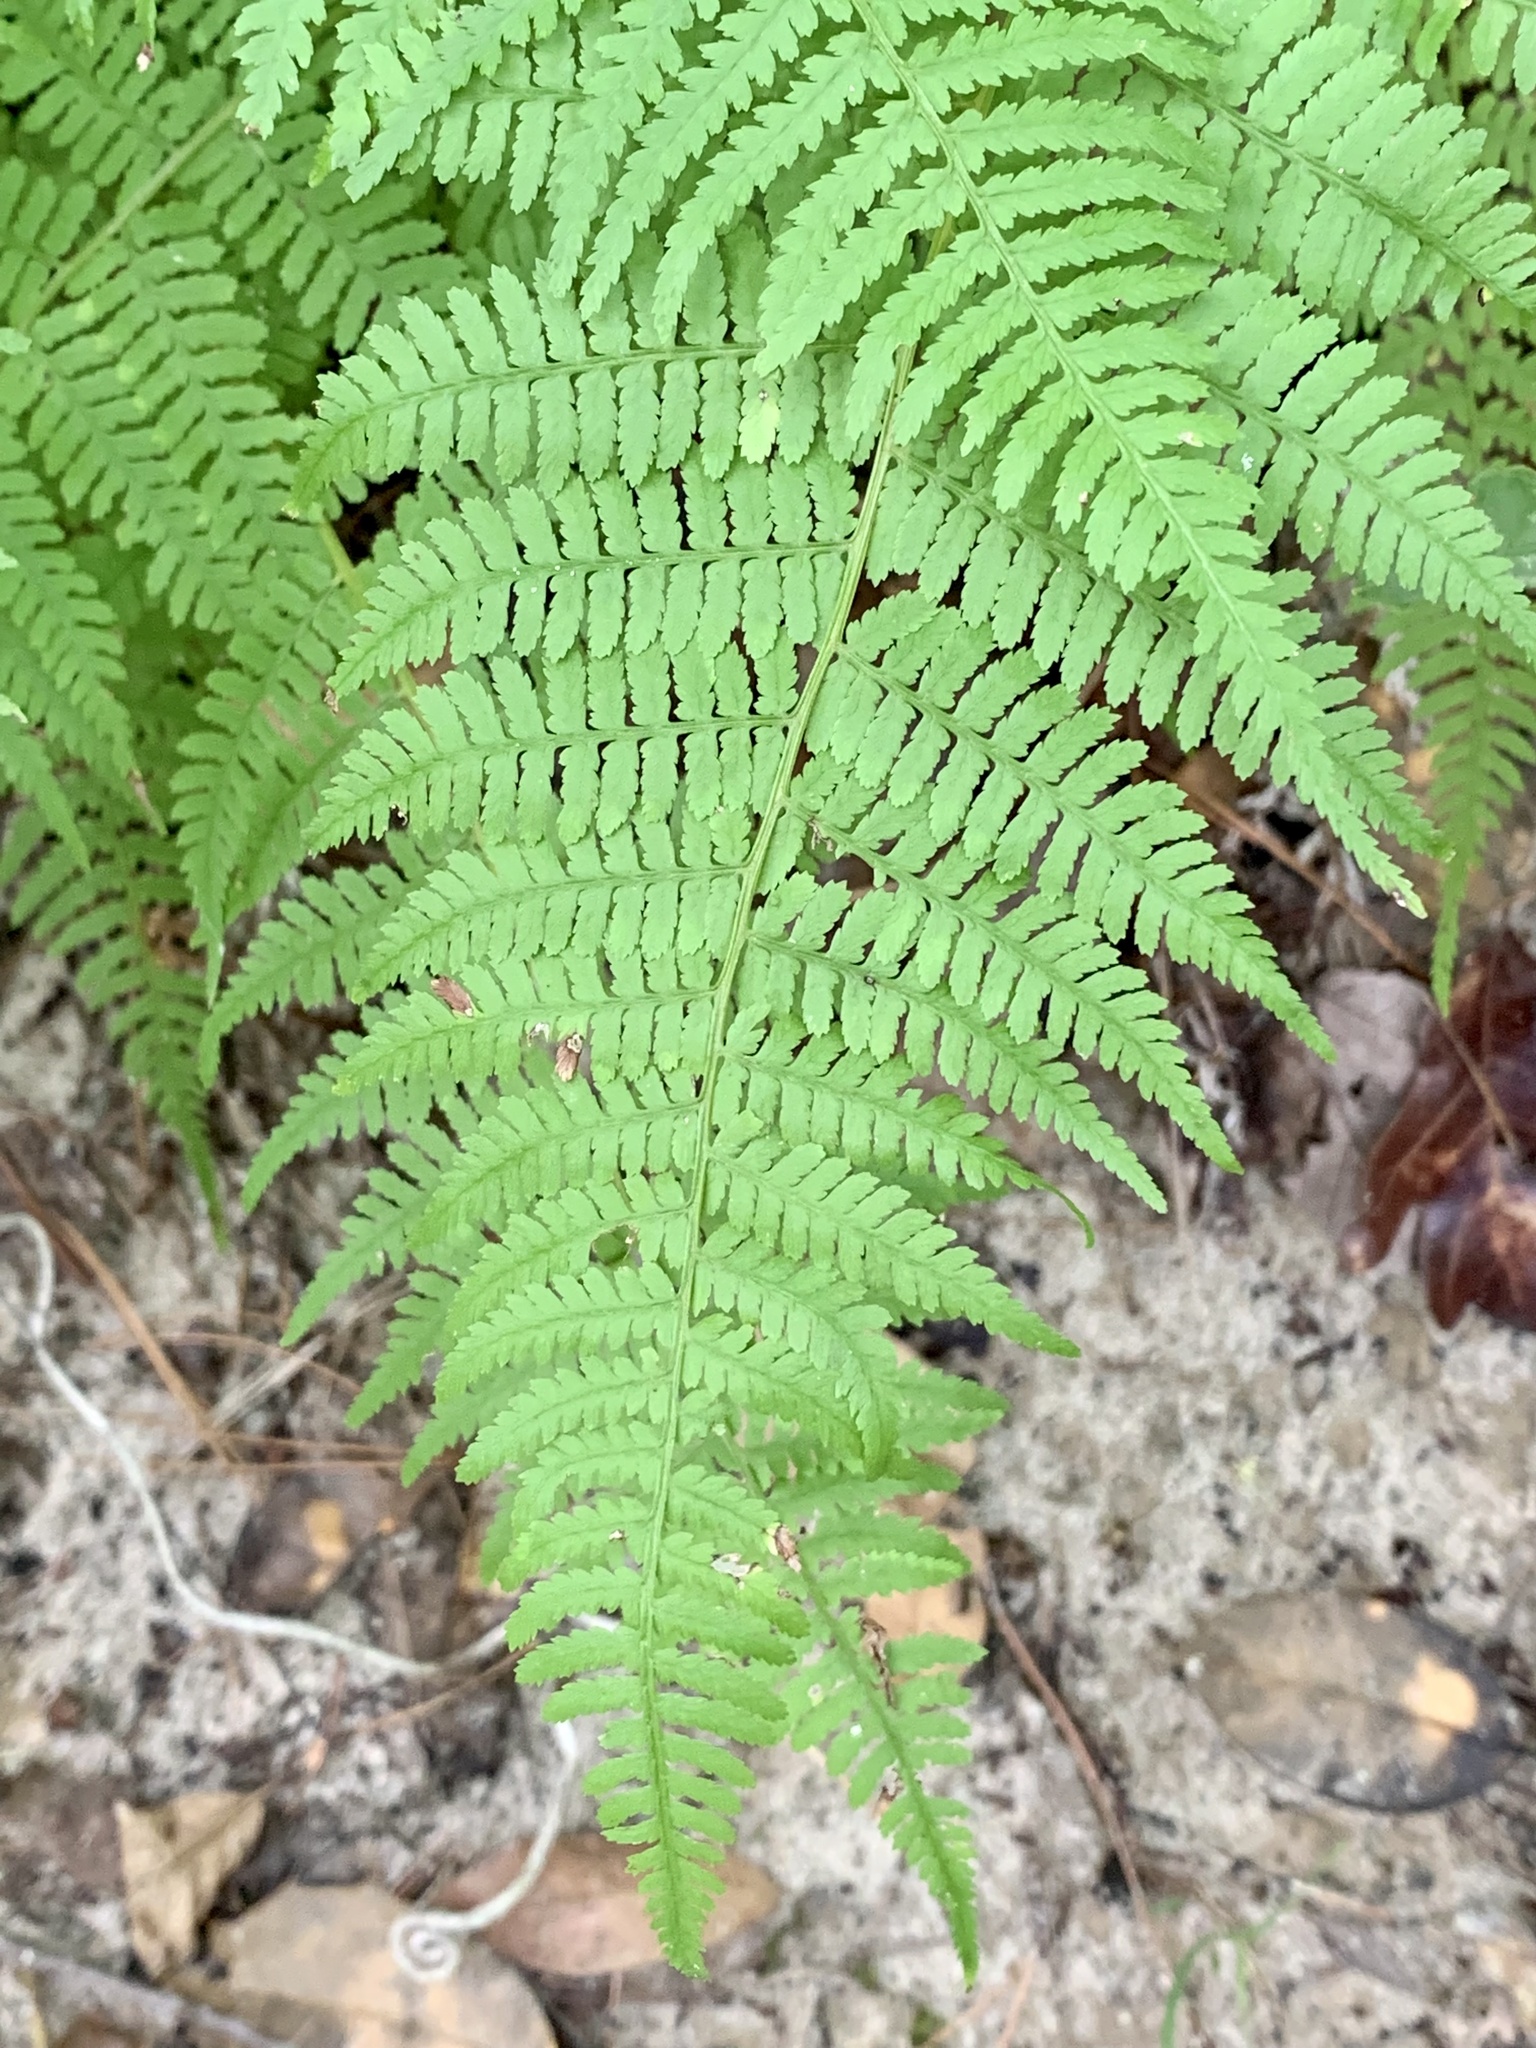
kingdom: Plantae
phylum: Tracheophyta
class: Polypodiopsida
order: Polypodiales
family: Athyriaceae
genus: Athyrium
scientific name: Athyrium asplenioides
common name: Southern lady fern
